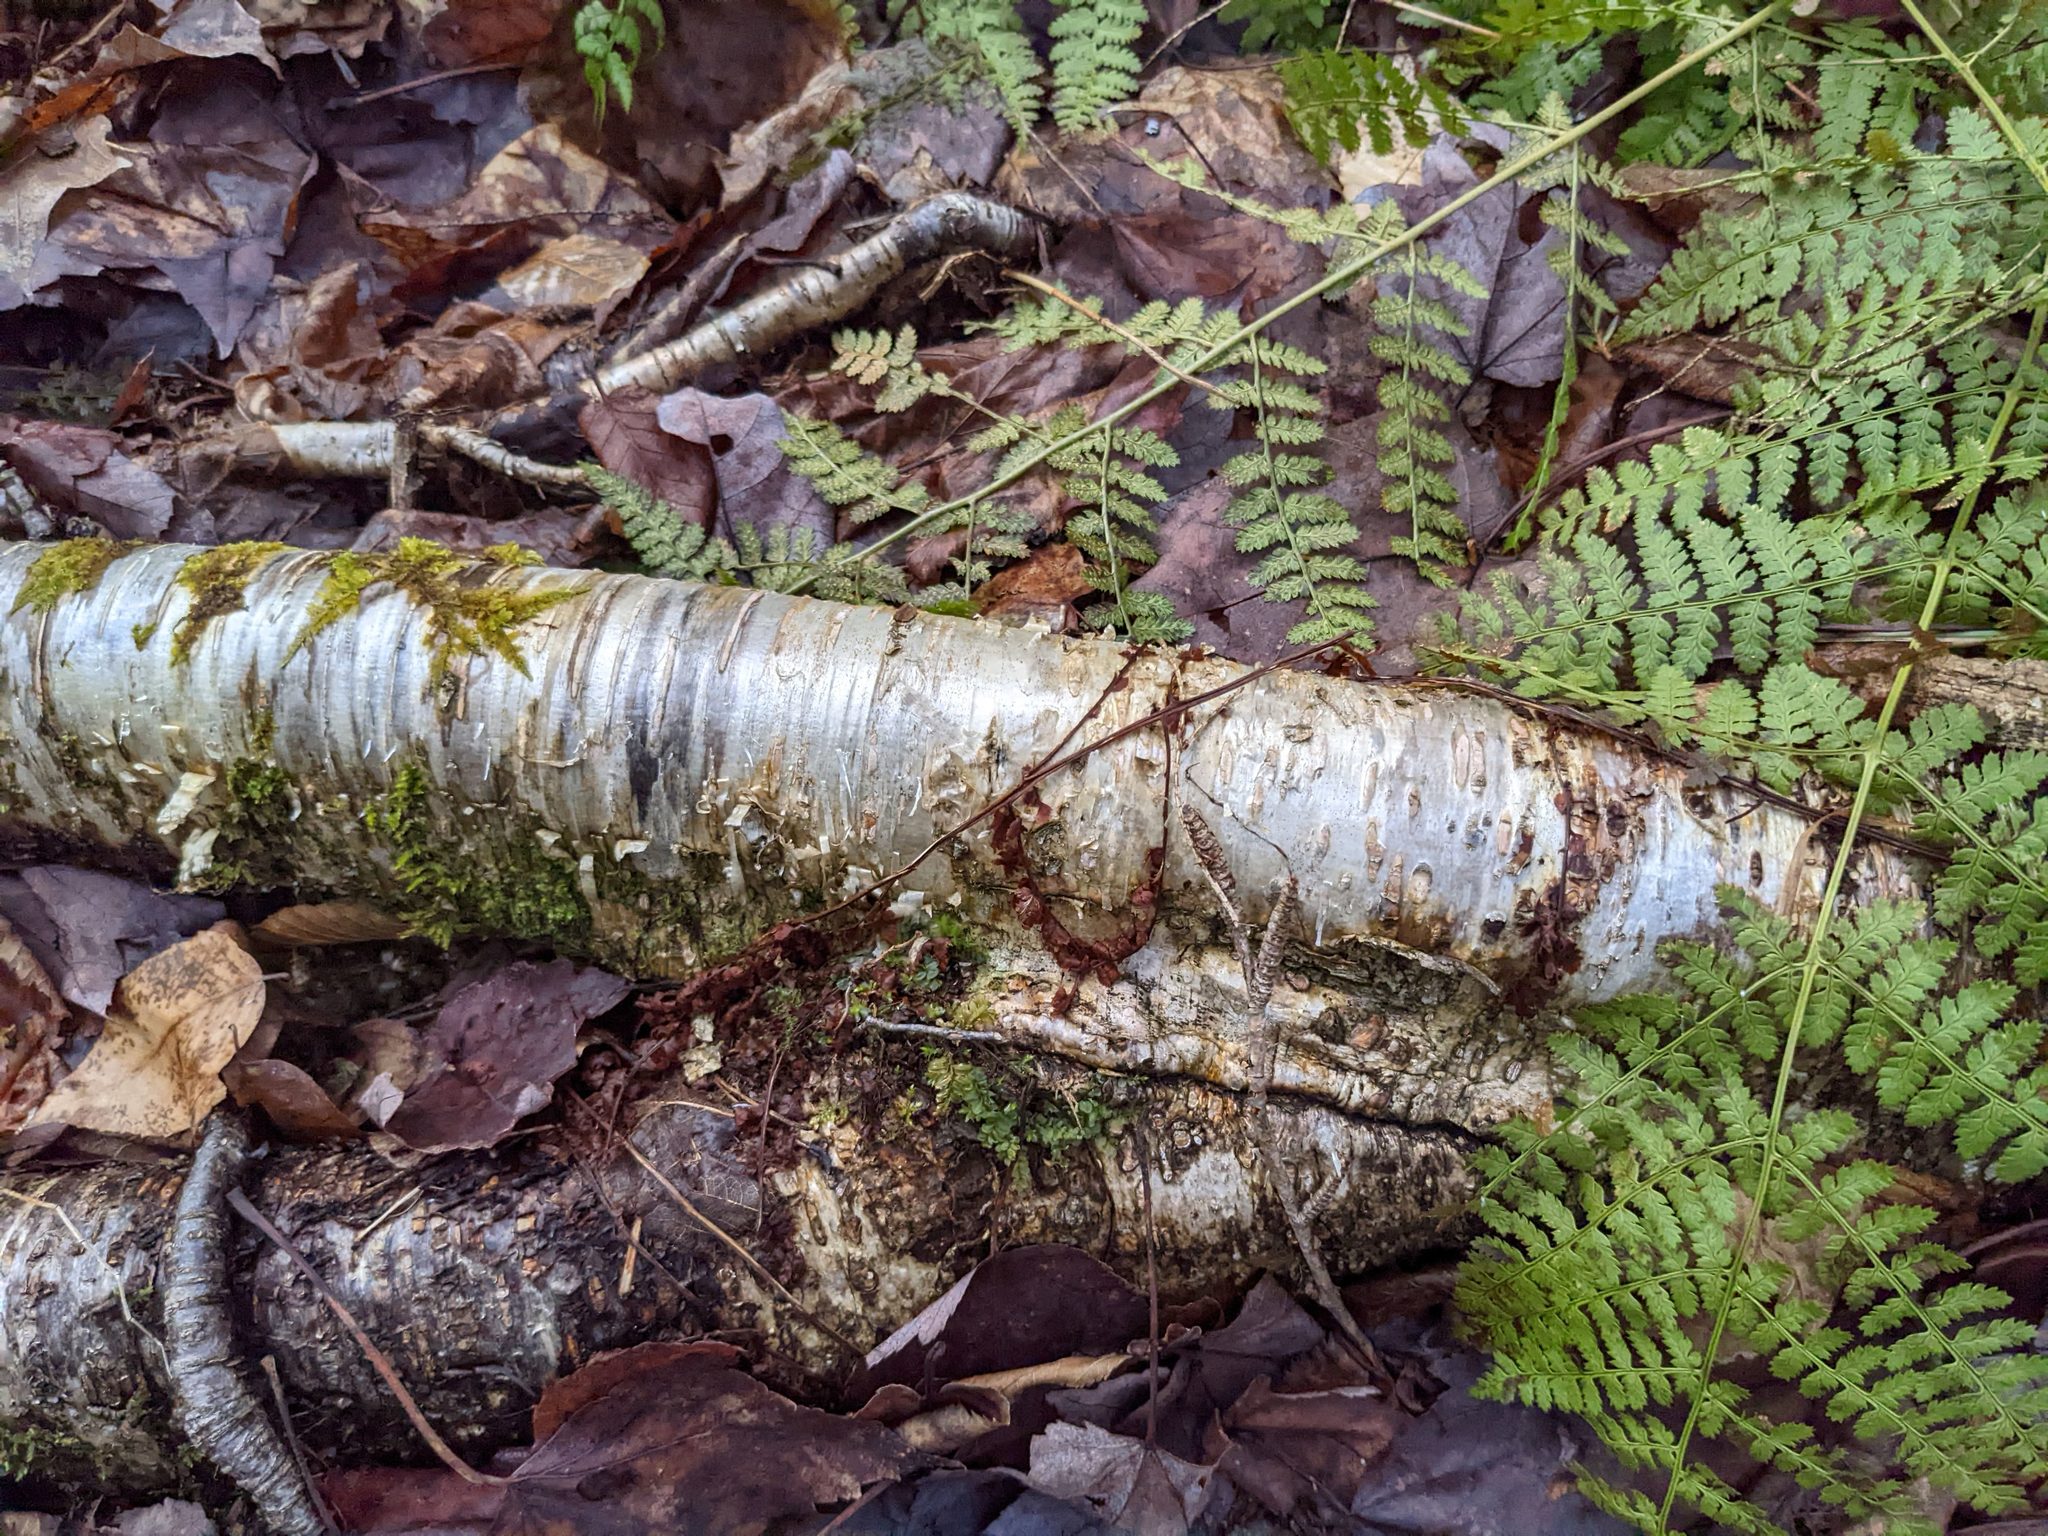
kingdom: Plantae
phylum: Tracheophyta
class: Polypodiopsida
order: Polypodiales
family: Dryopteridaceae
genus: Dryopteris
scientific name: Dryopteris intermedia
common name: Evergreen wood fern
